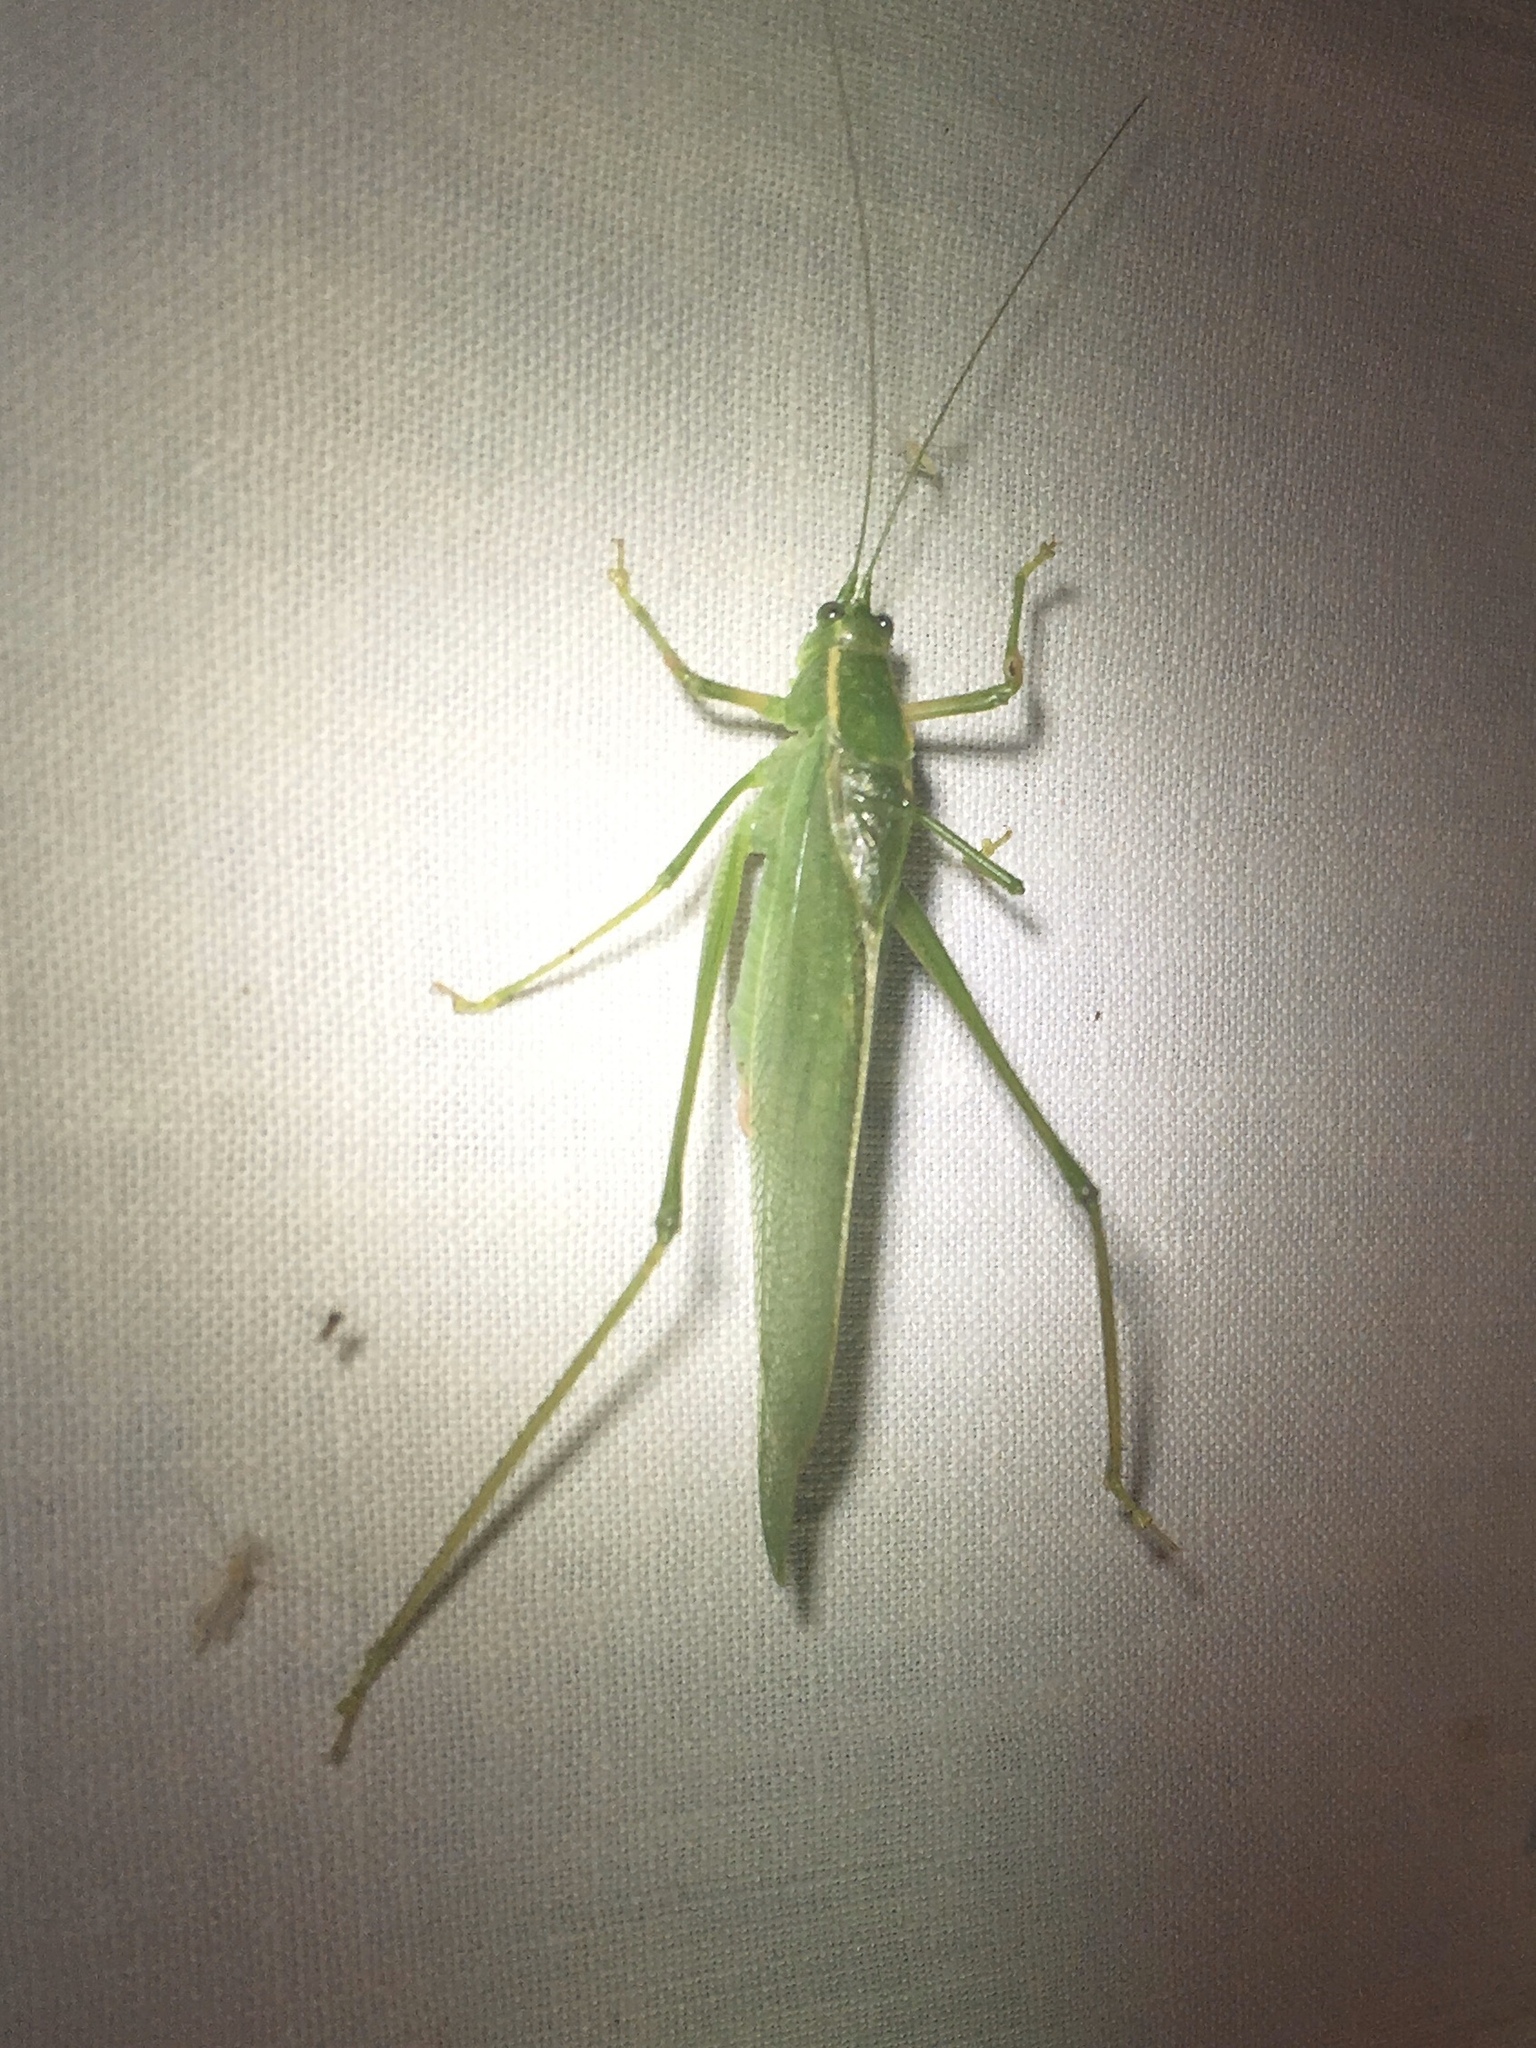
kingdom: Animalia
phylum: Arthropoda
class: Insecta
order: Orthoptera
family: Tettigoniidae
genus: Scudderia
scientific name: Scudderia septentrionalis
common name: Northern bush-katydid
